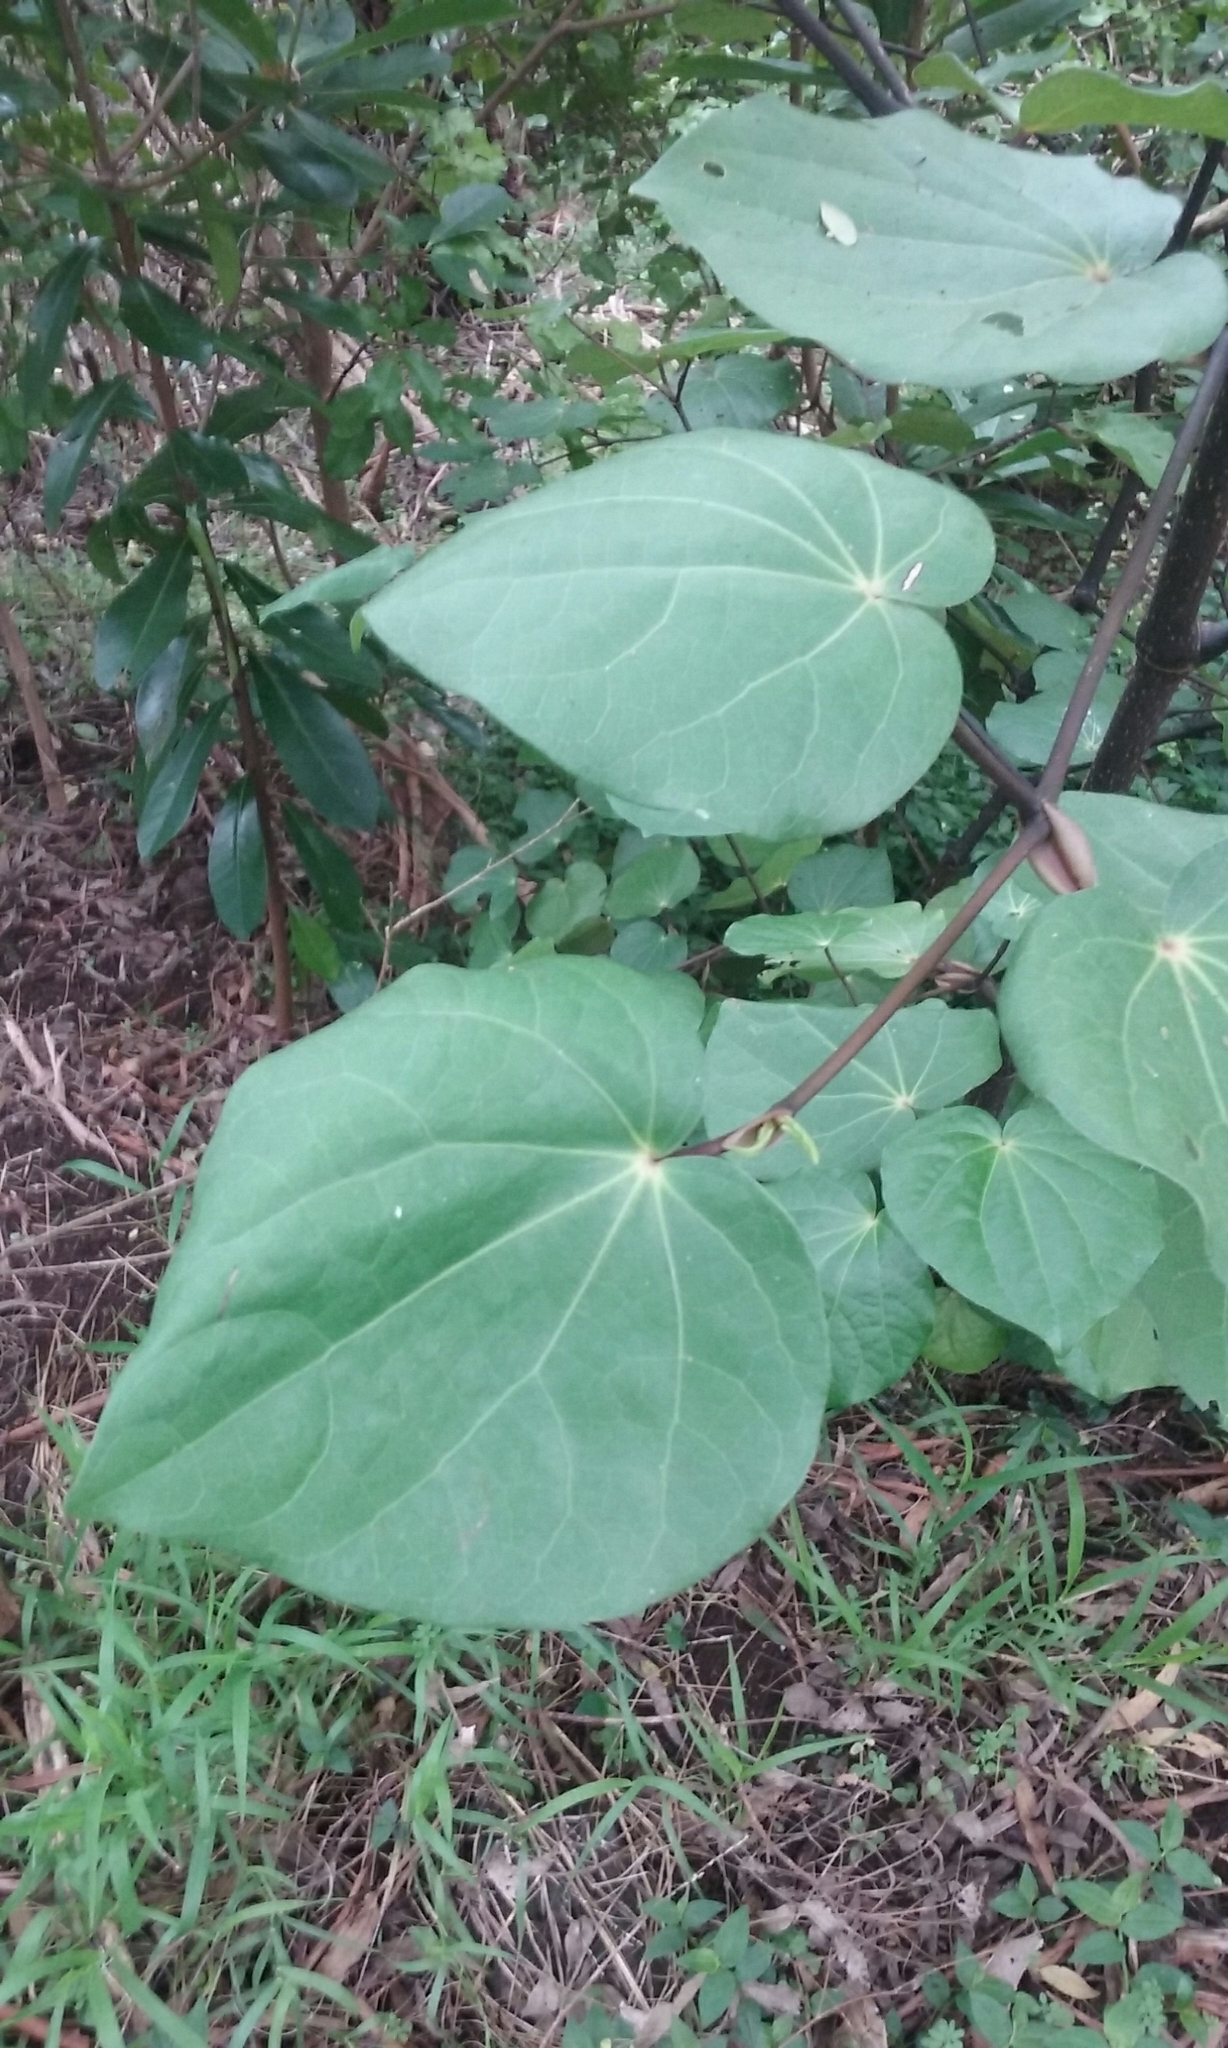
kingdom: Plantae
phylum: Tracheophyta
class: Magnoliopsida
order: Piperales
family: Piperaceae
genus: Macropiper
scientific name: Macropiper excelsum
